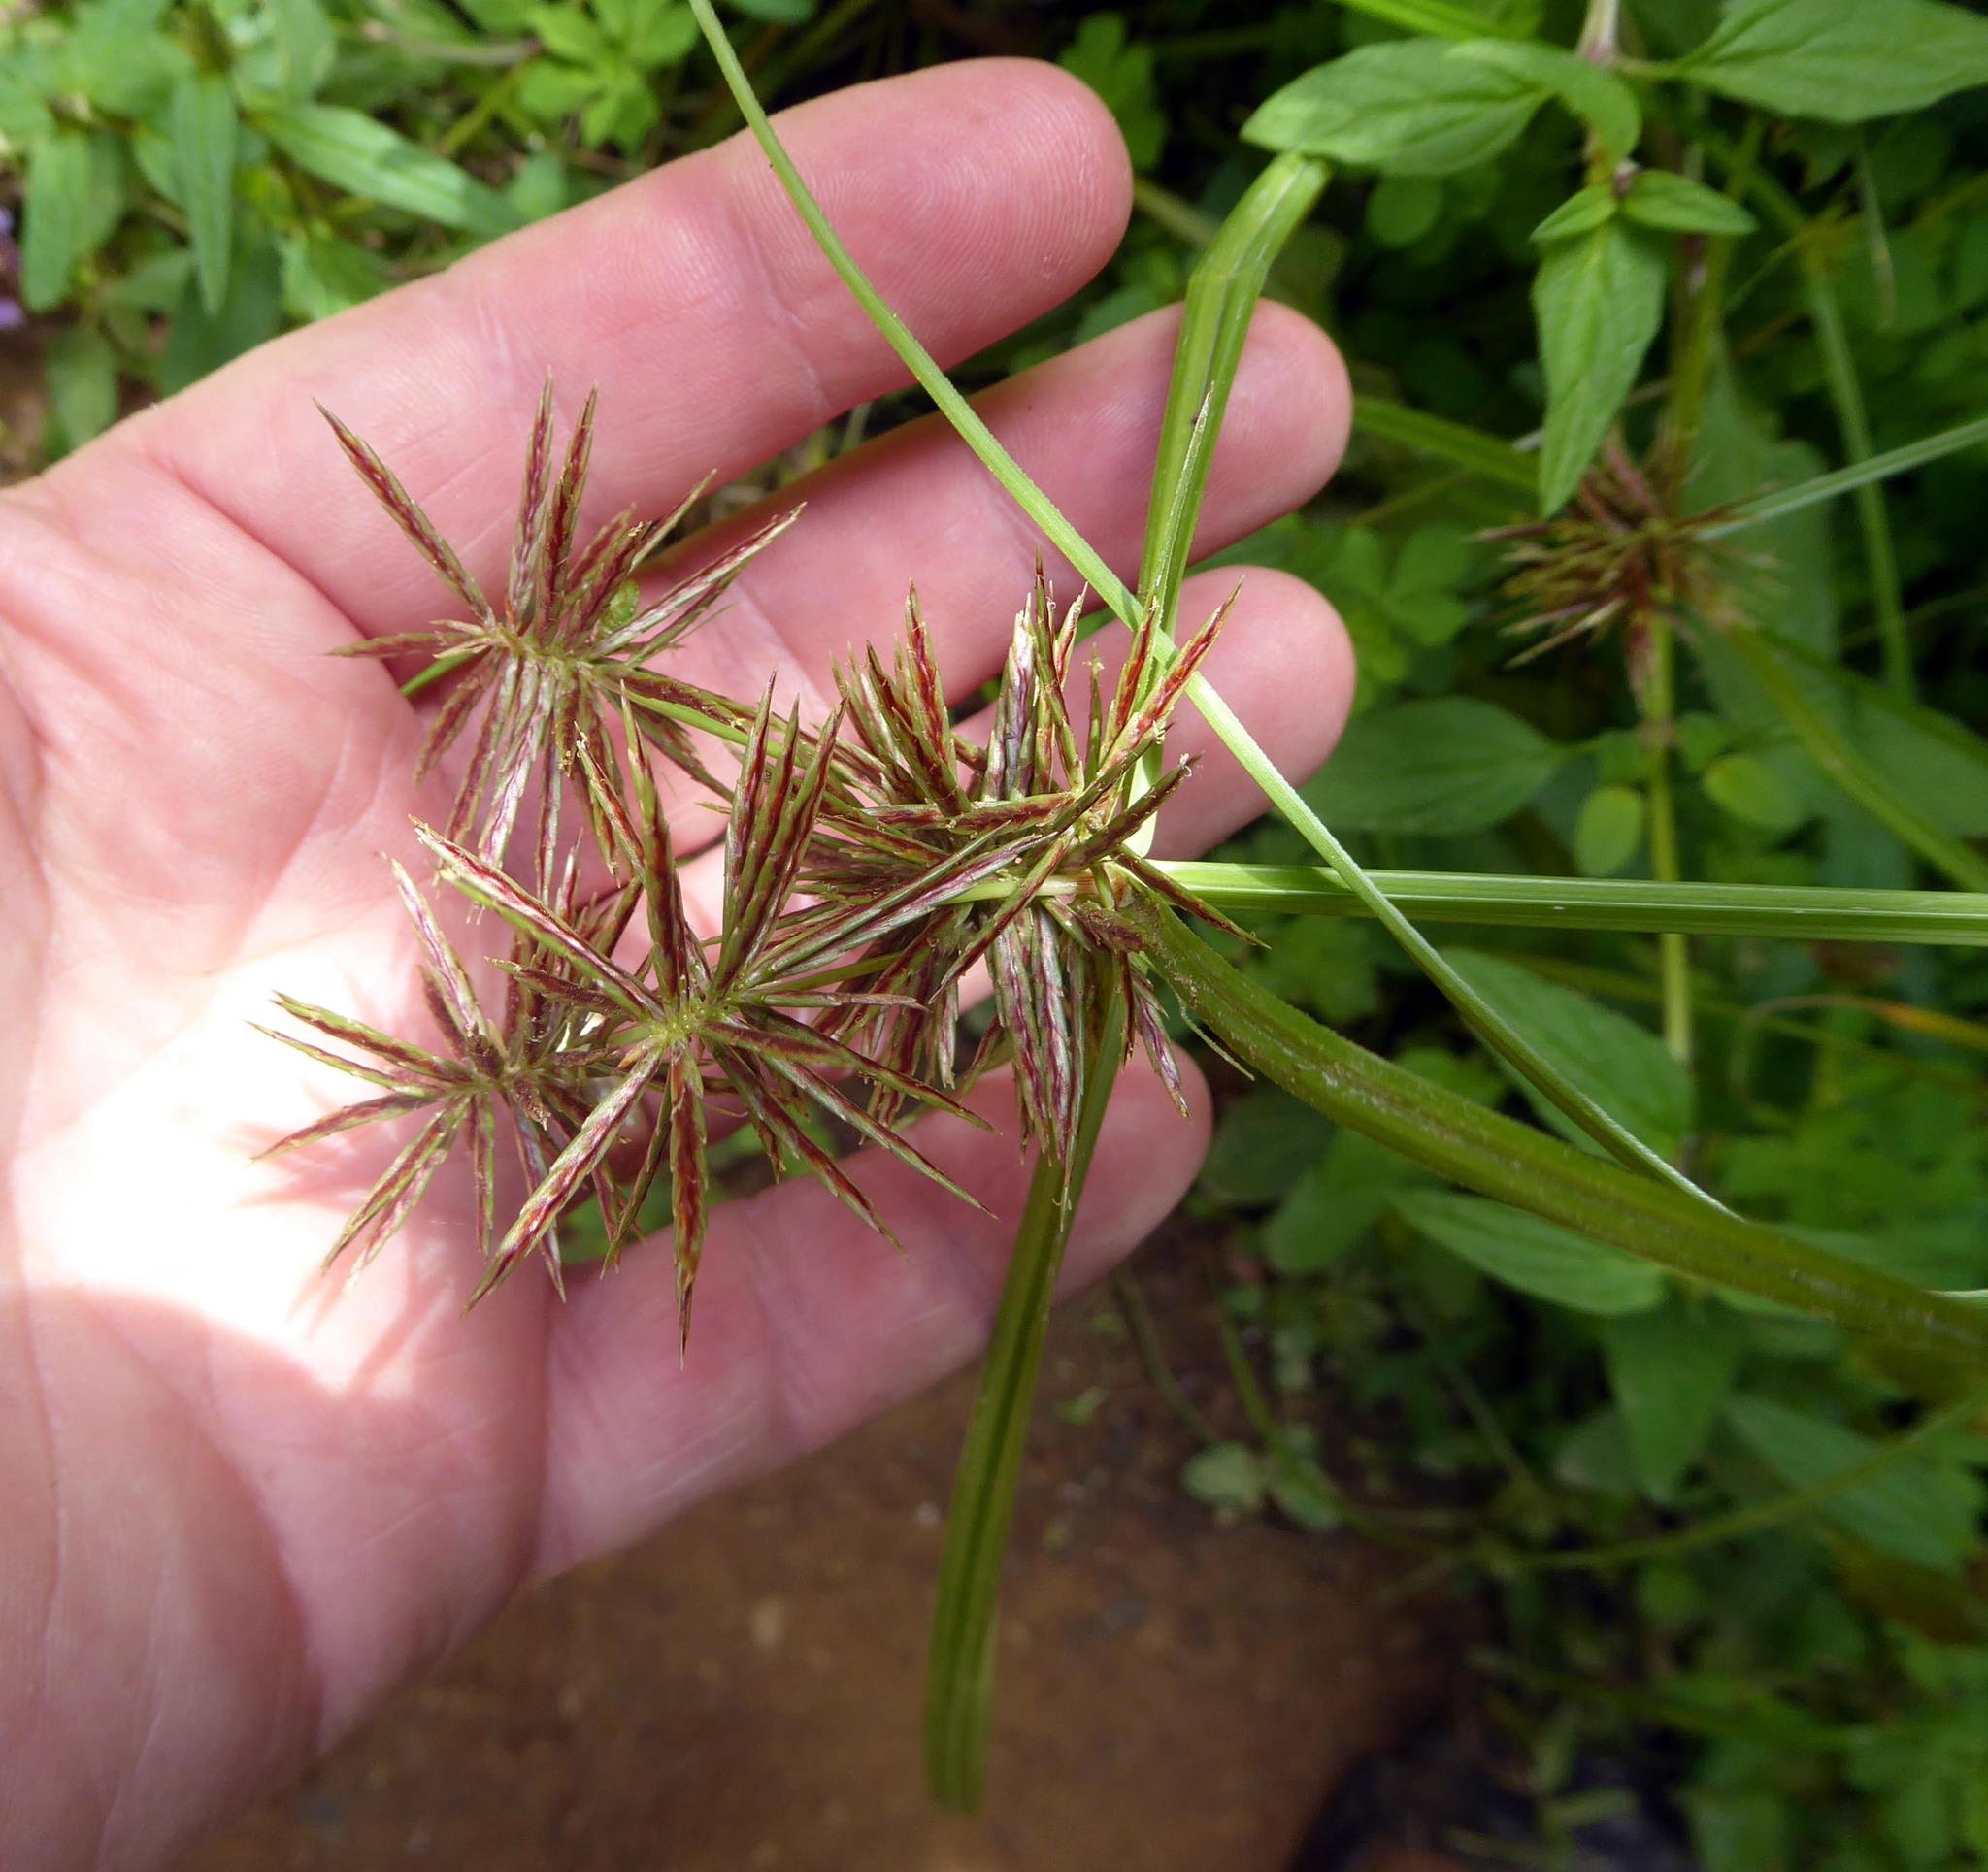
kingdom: Plantae
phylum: Tracheophyta
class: Liliopsida
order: Poales
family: Cyperaceae
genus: Cyperus
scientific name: Cyperus congestus
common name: Dense flat sedge
